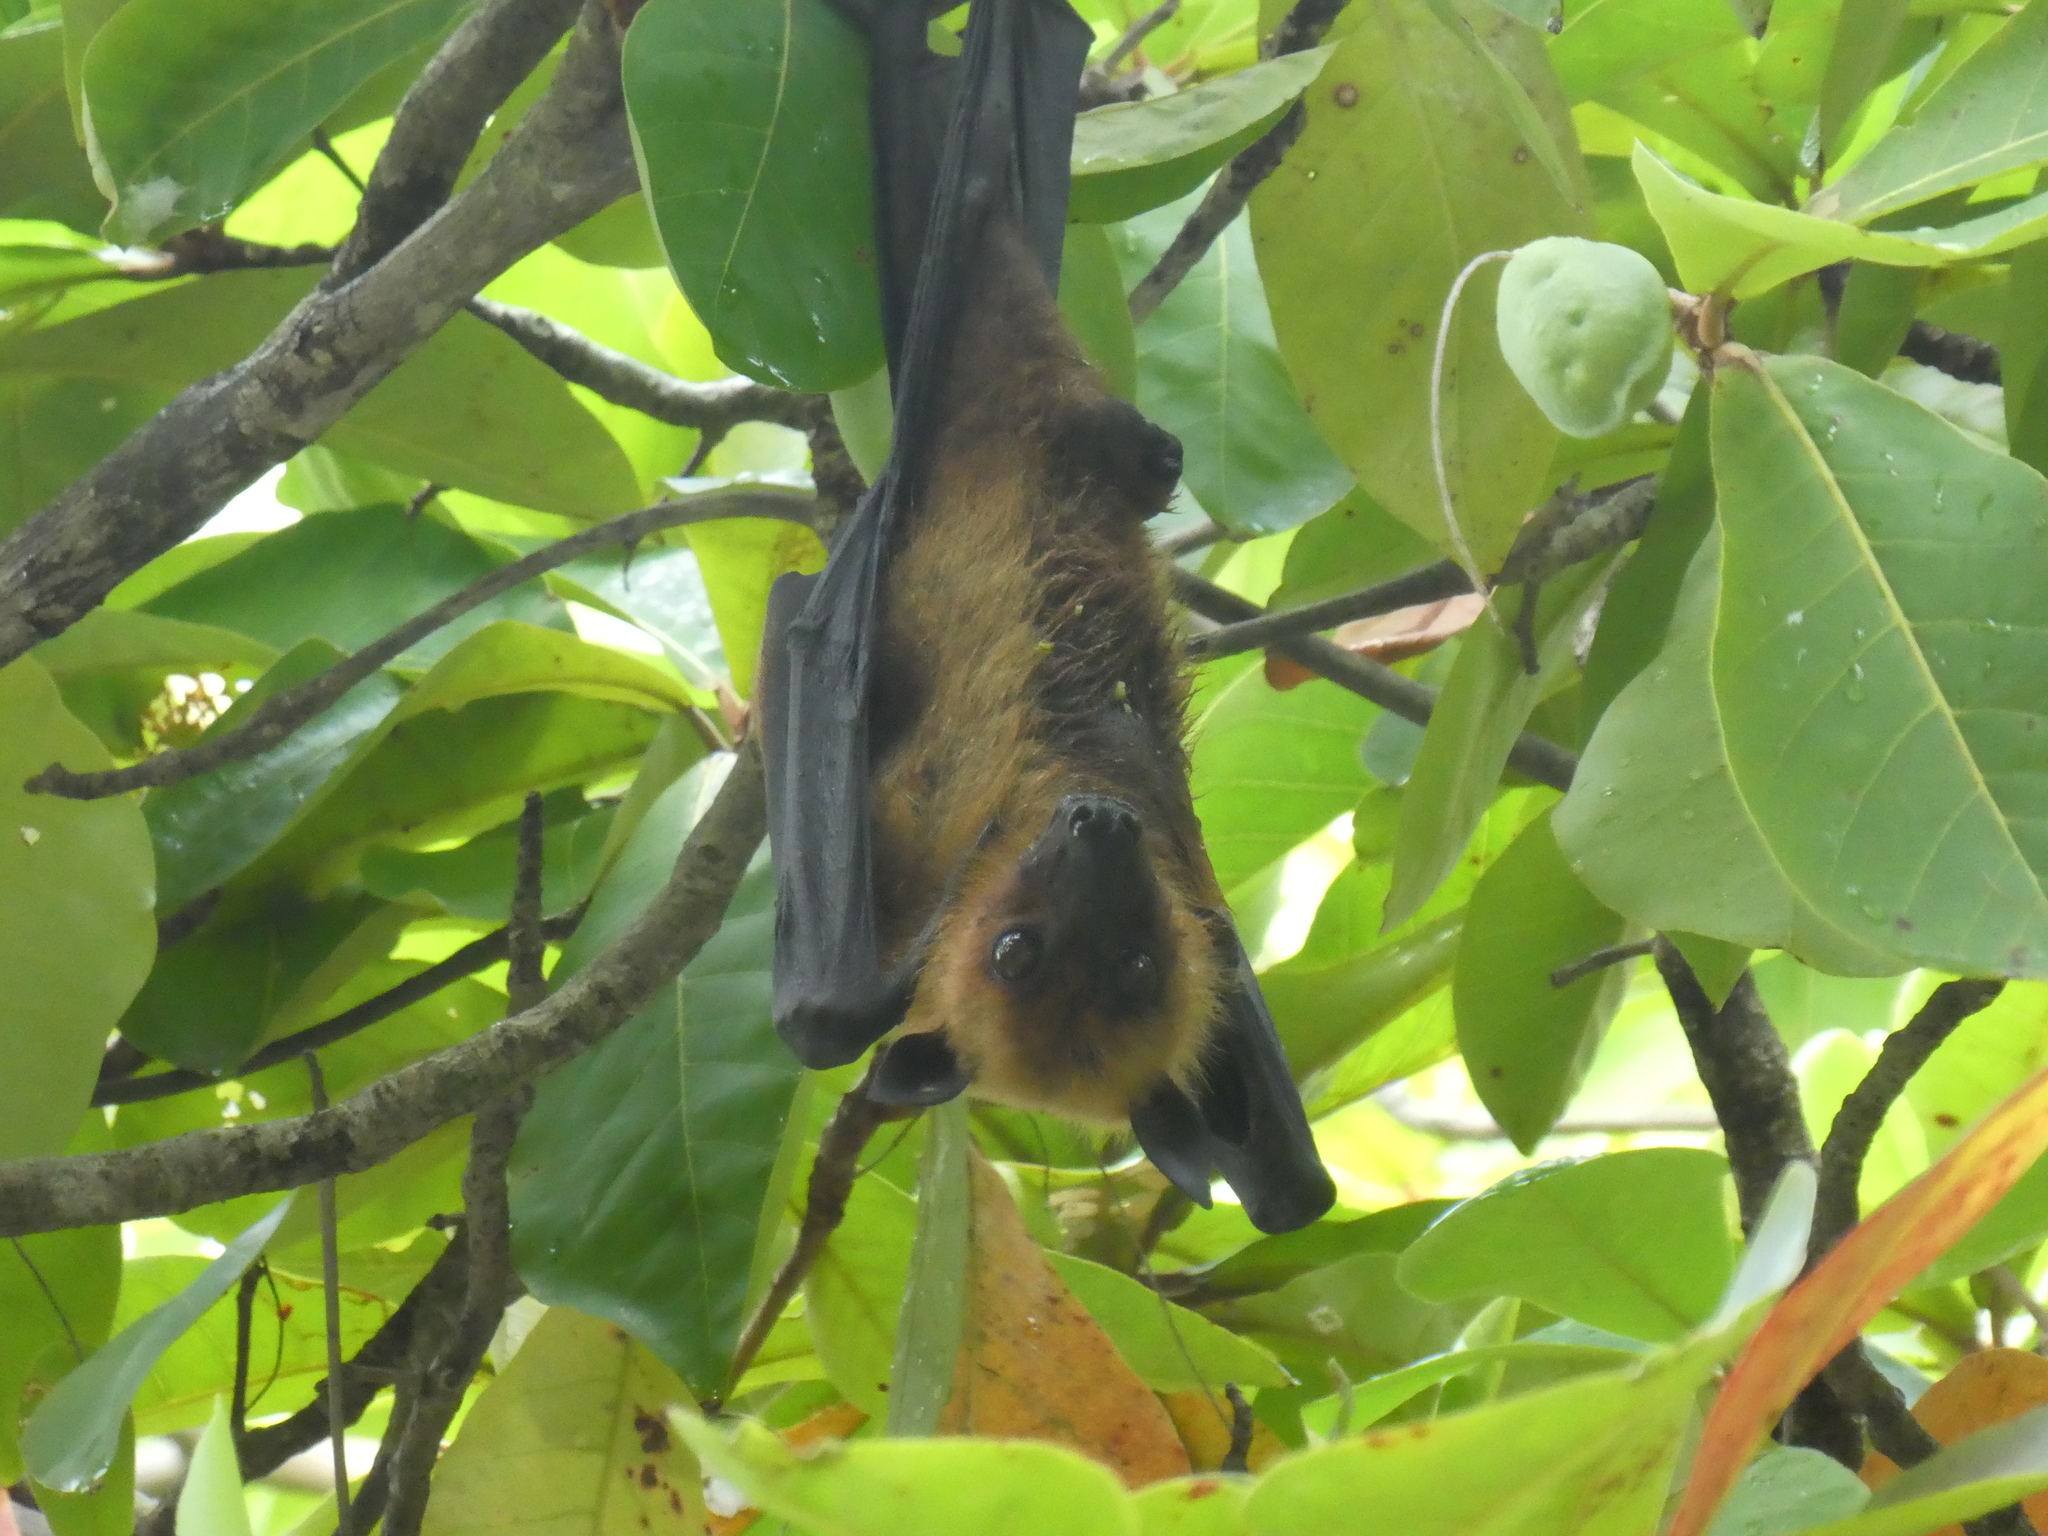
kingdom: Animalia
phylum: Chordata
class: Mammalia
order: Chiroptera
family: Pteropodidae
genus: Pteropus
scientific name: Pteropus medius
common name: Indian flying fox
